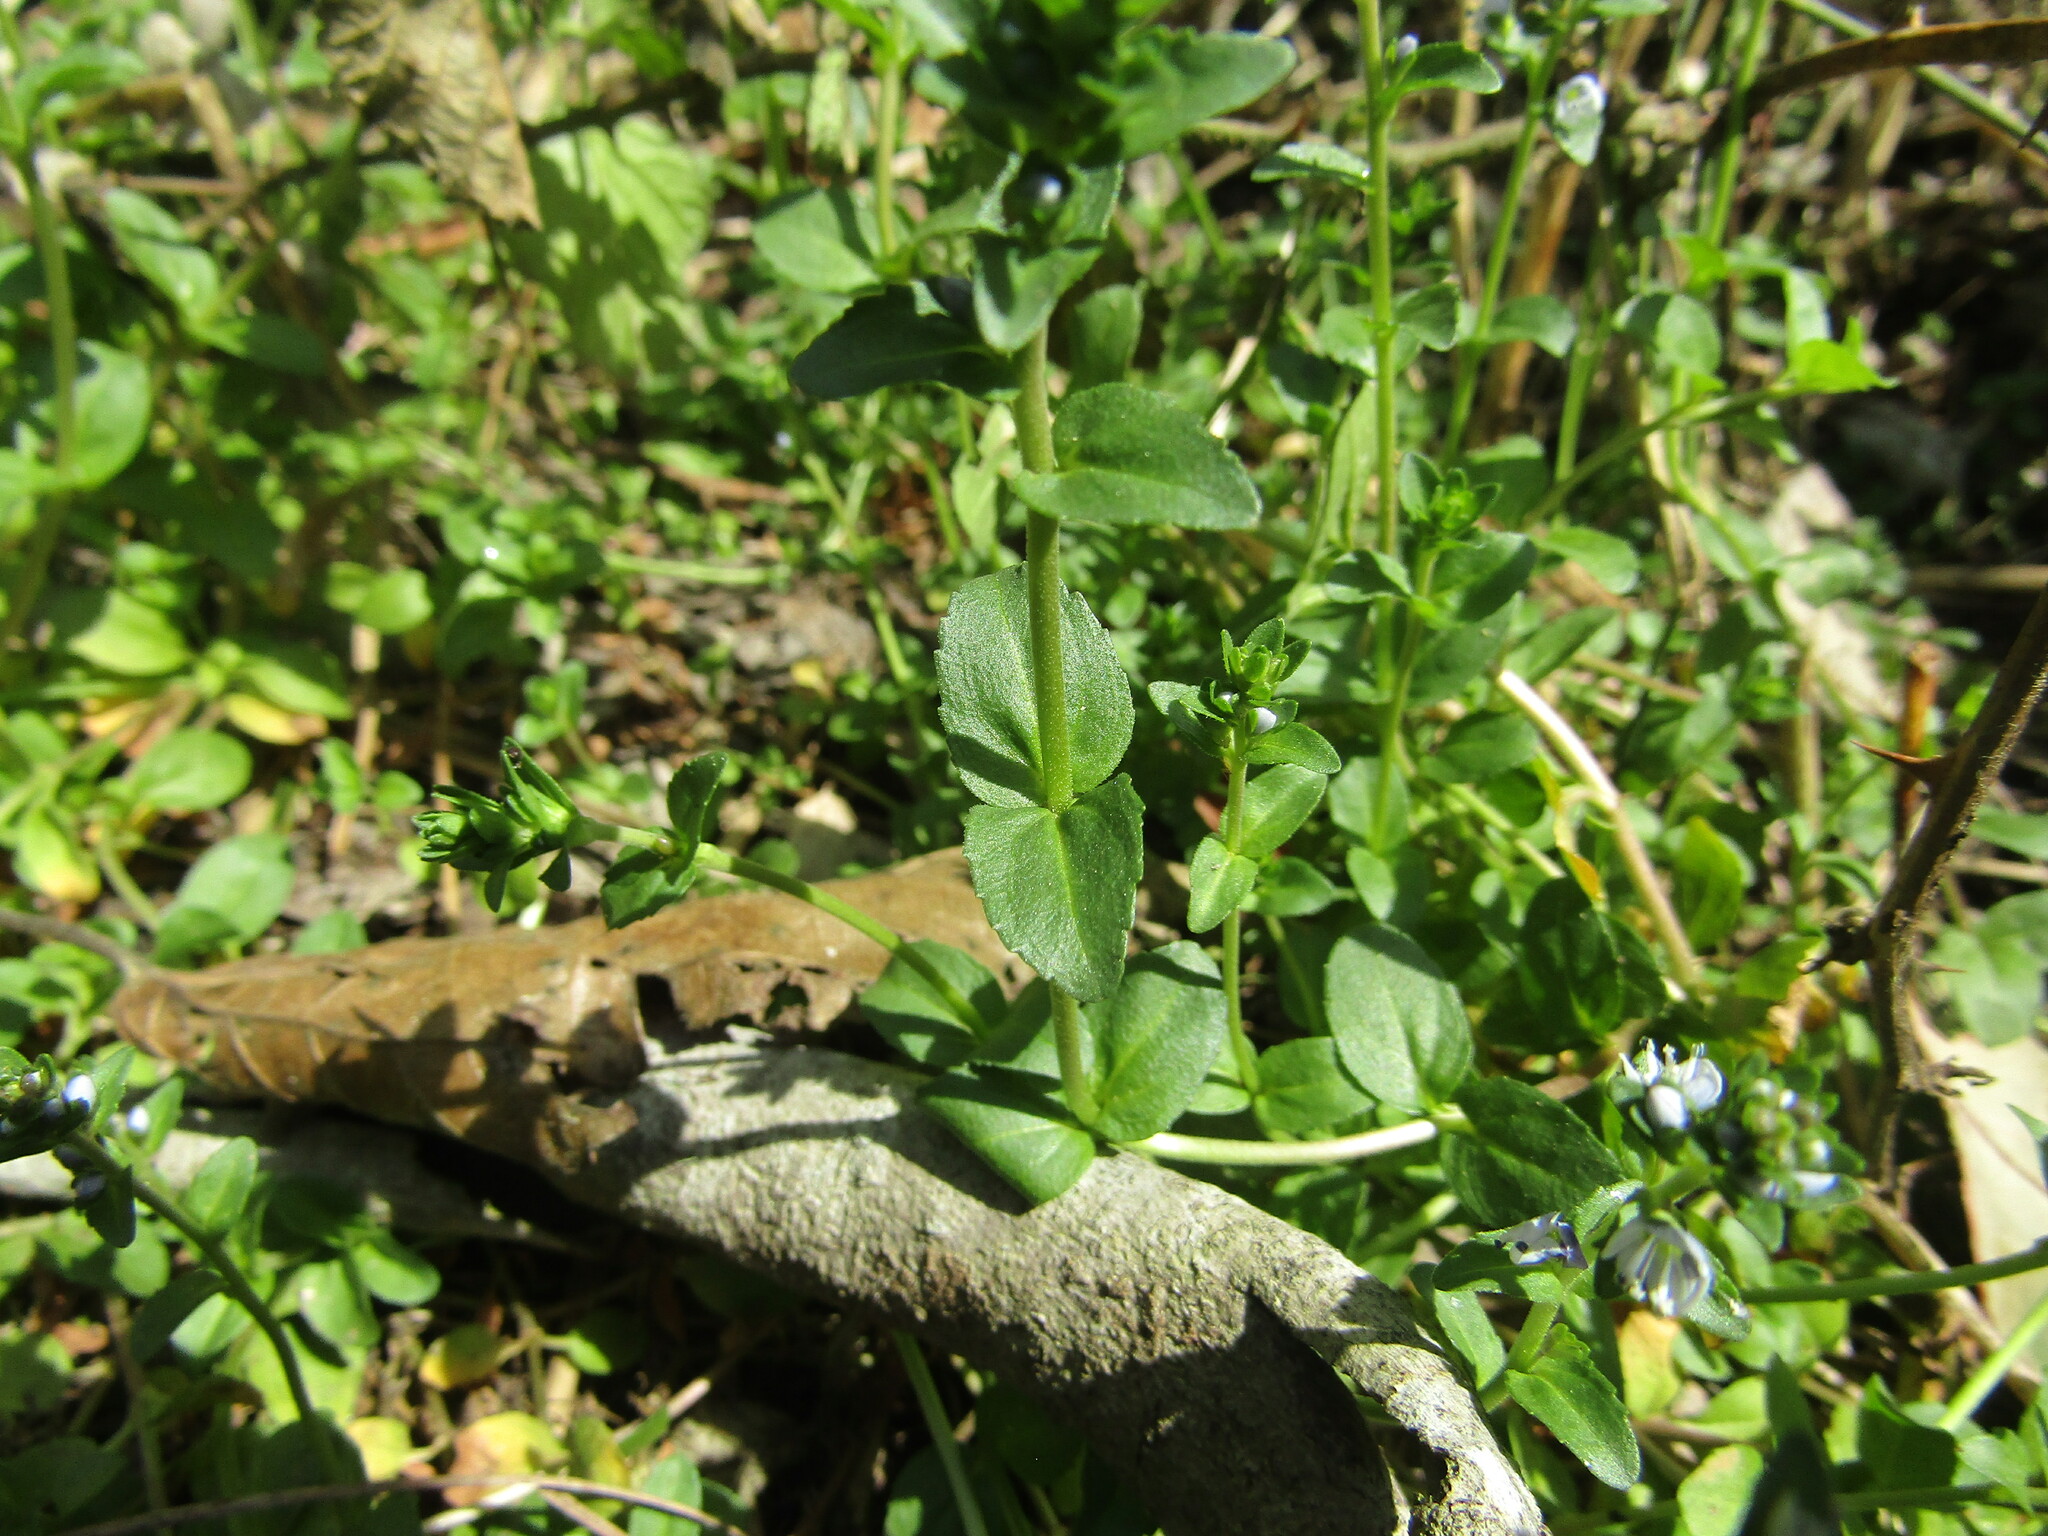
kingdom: Plantae
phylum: Tracheophyta
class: Magnoliopsida
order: Lamiales
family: Plantaginaceae
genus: Veronica
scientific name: Veronica serpyllifolia
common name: Thyme-leaved speedwell
